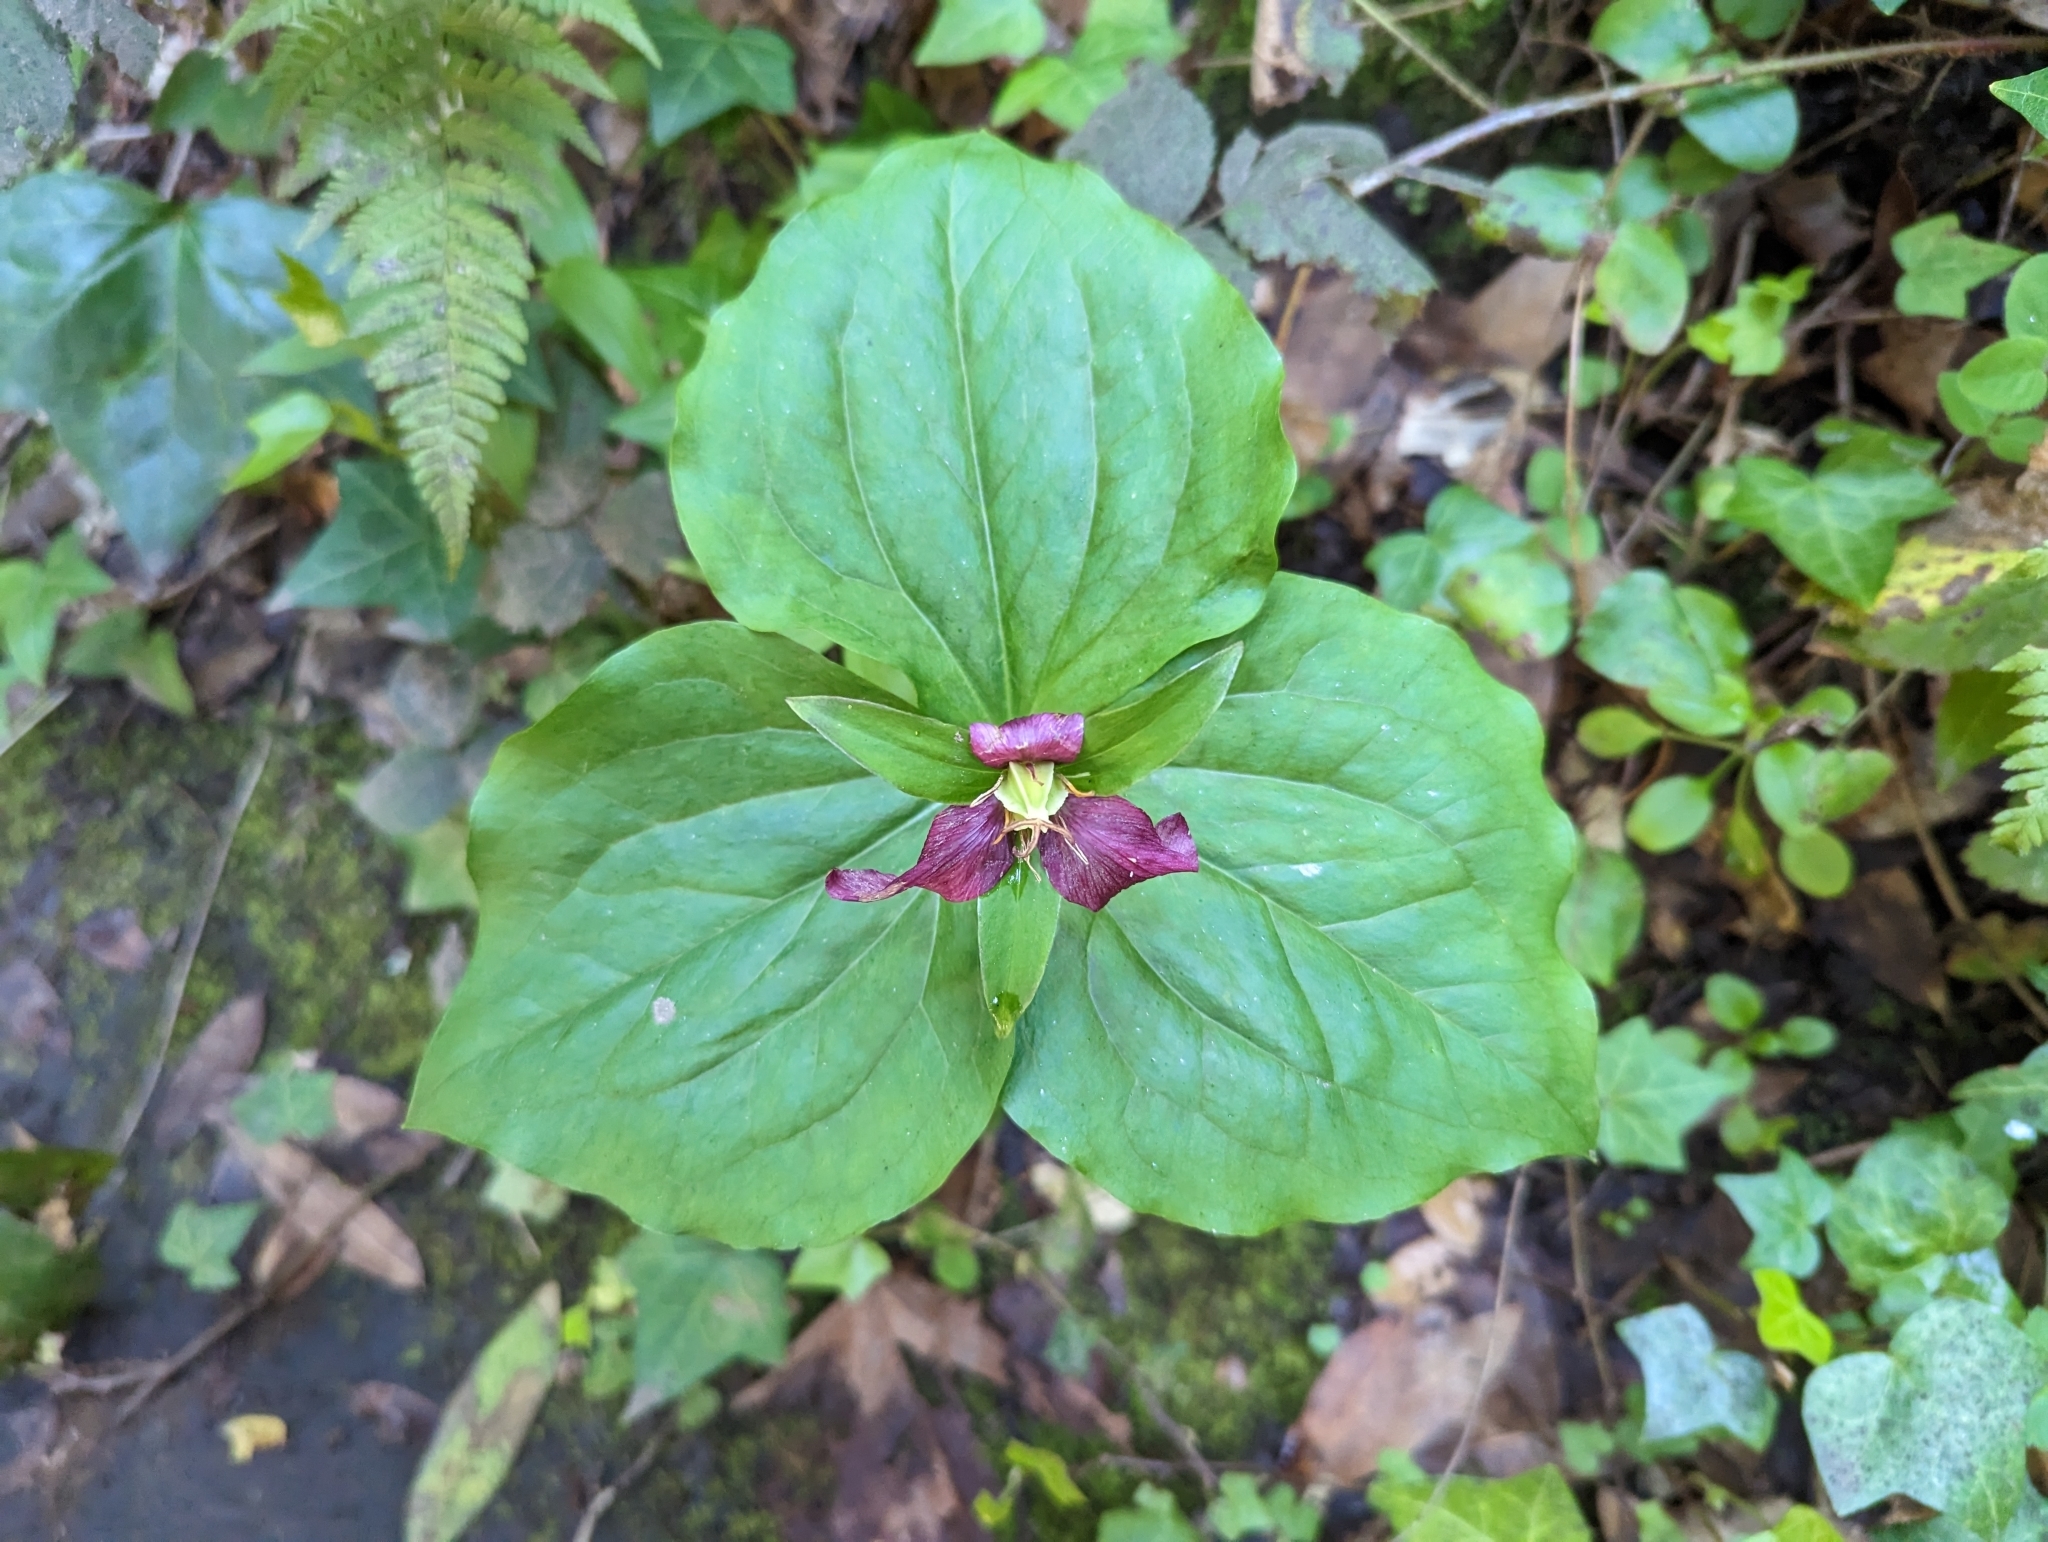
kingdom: Plantae
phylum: Tracheophyta
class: Liliopsida
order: Liliales
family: Melanthiaceae
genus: Trillium
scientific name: Trillium ovatum
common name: Pacific trillium
